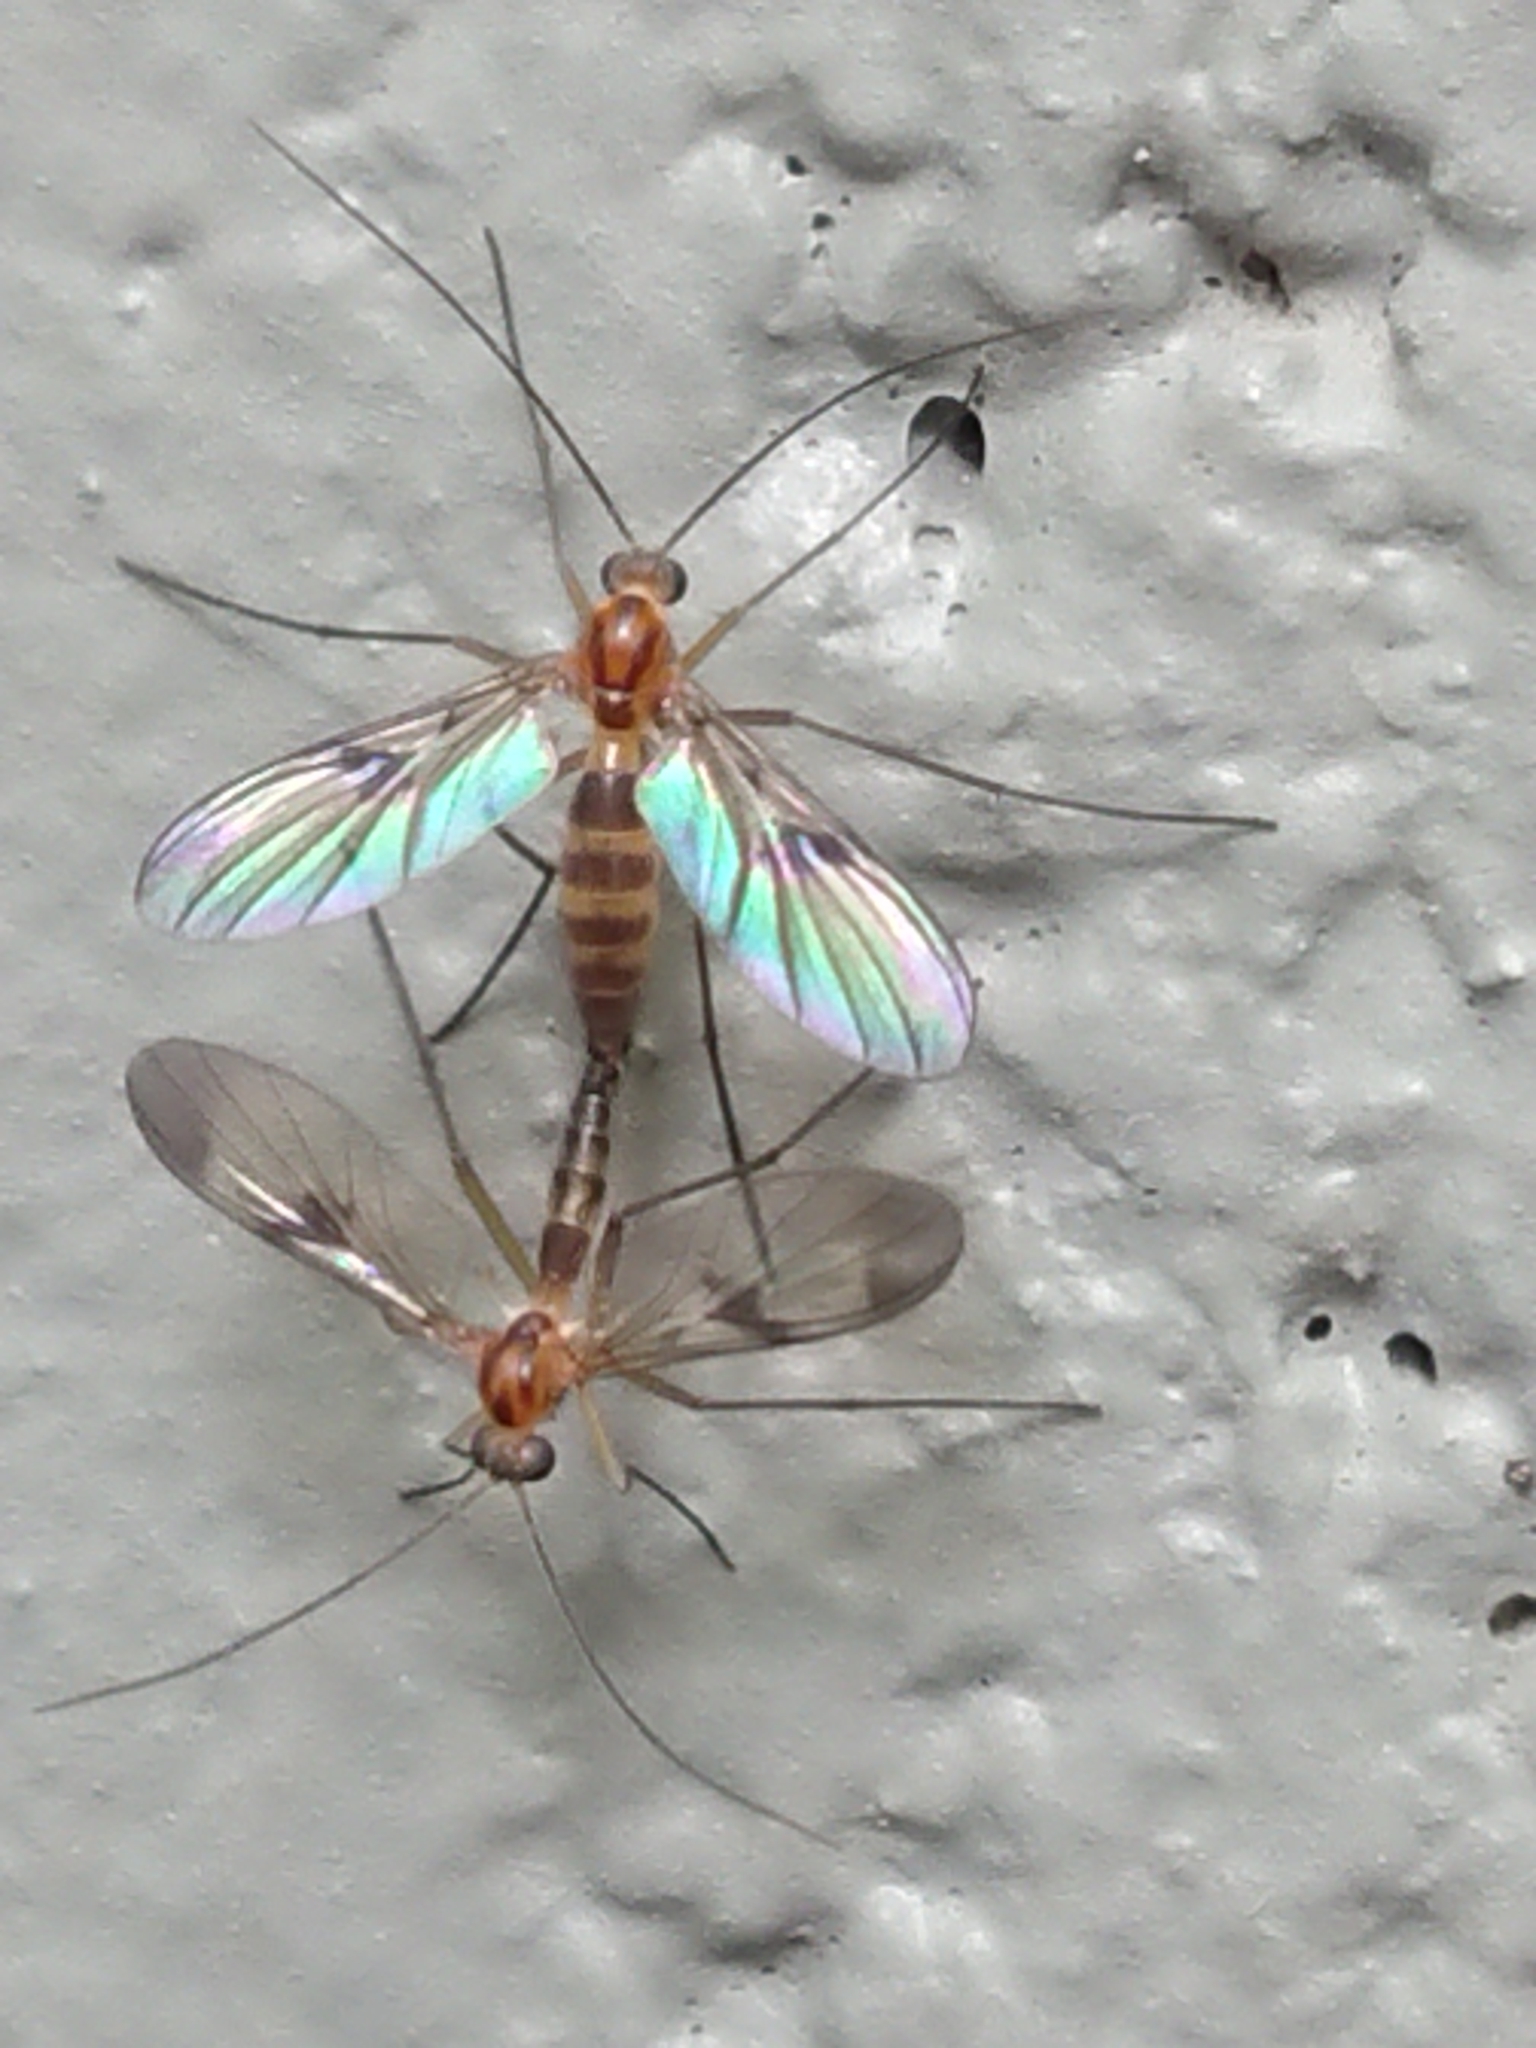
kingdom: Animalia
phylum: Arthropoda
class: Insecta
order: Diptera
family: Keroplatidae
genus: Macrocera
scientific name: Macrocera scoparia
